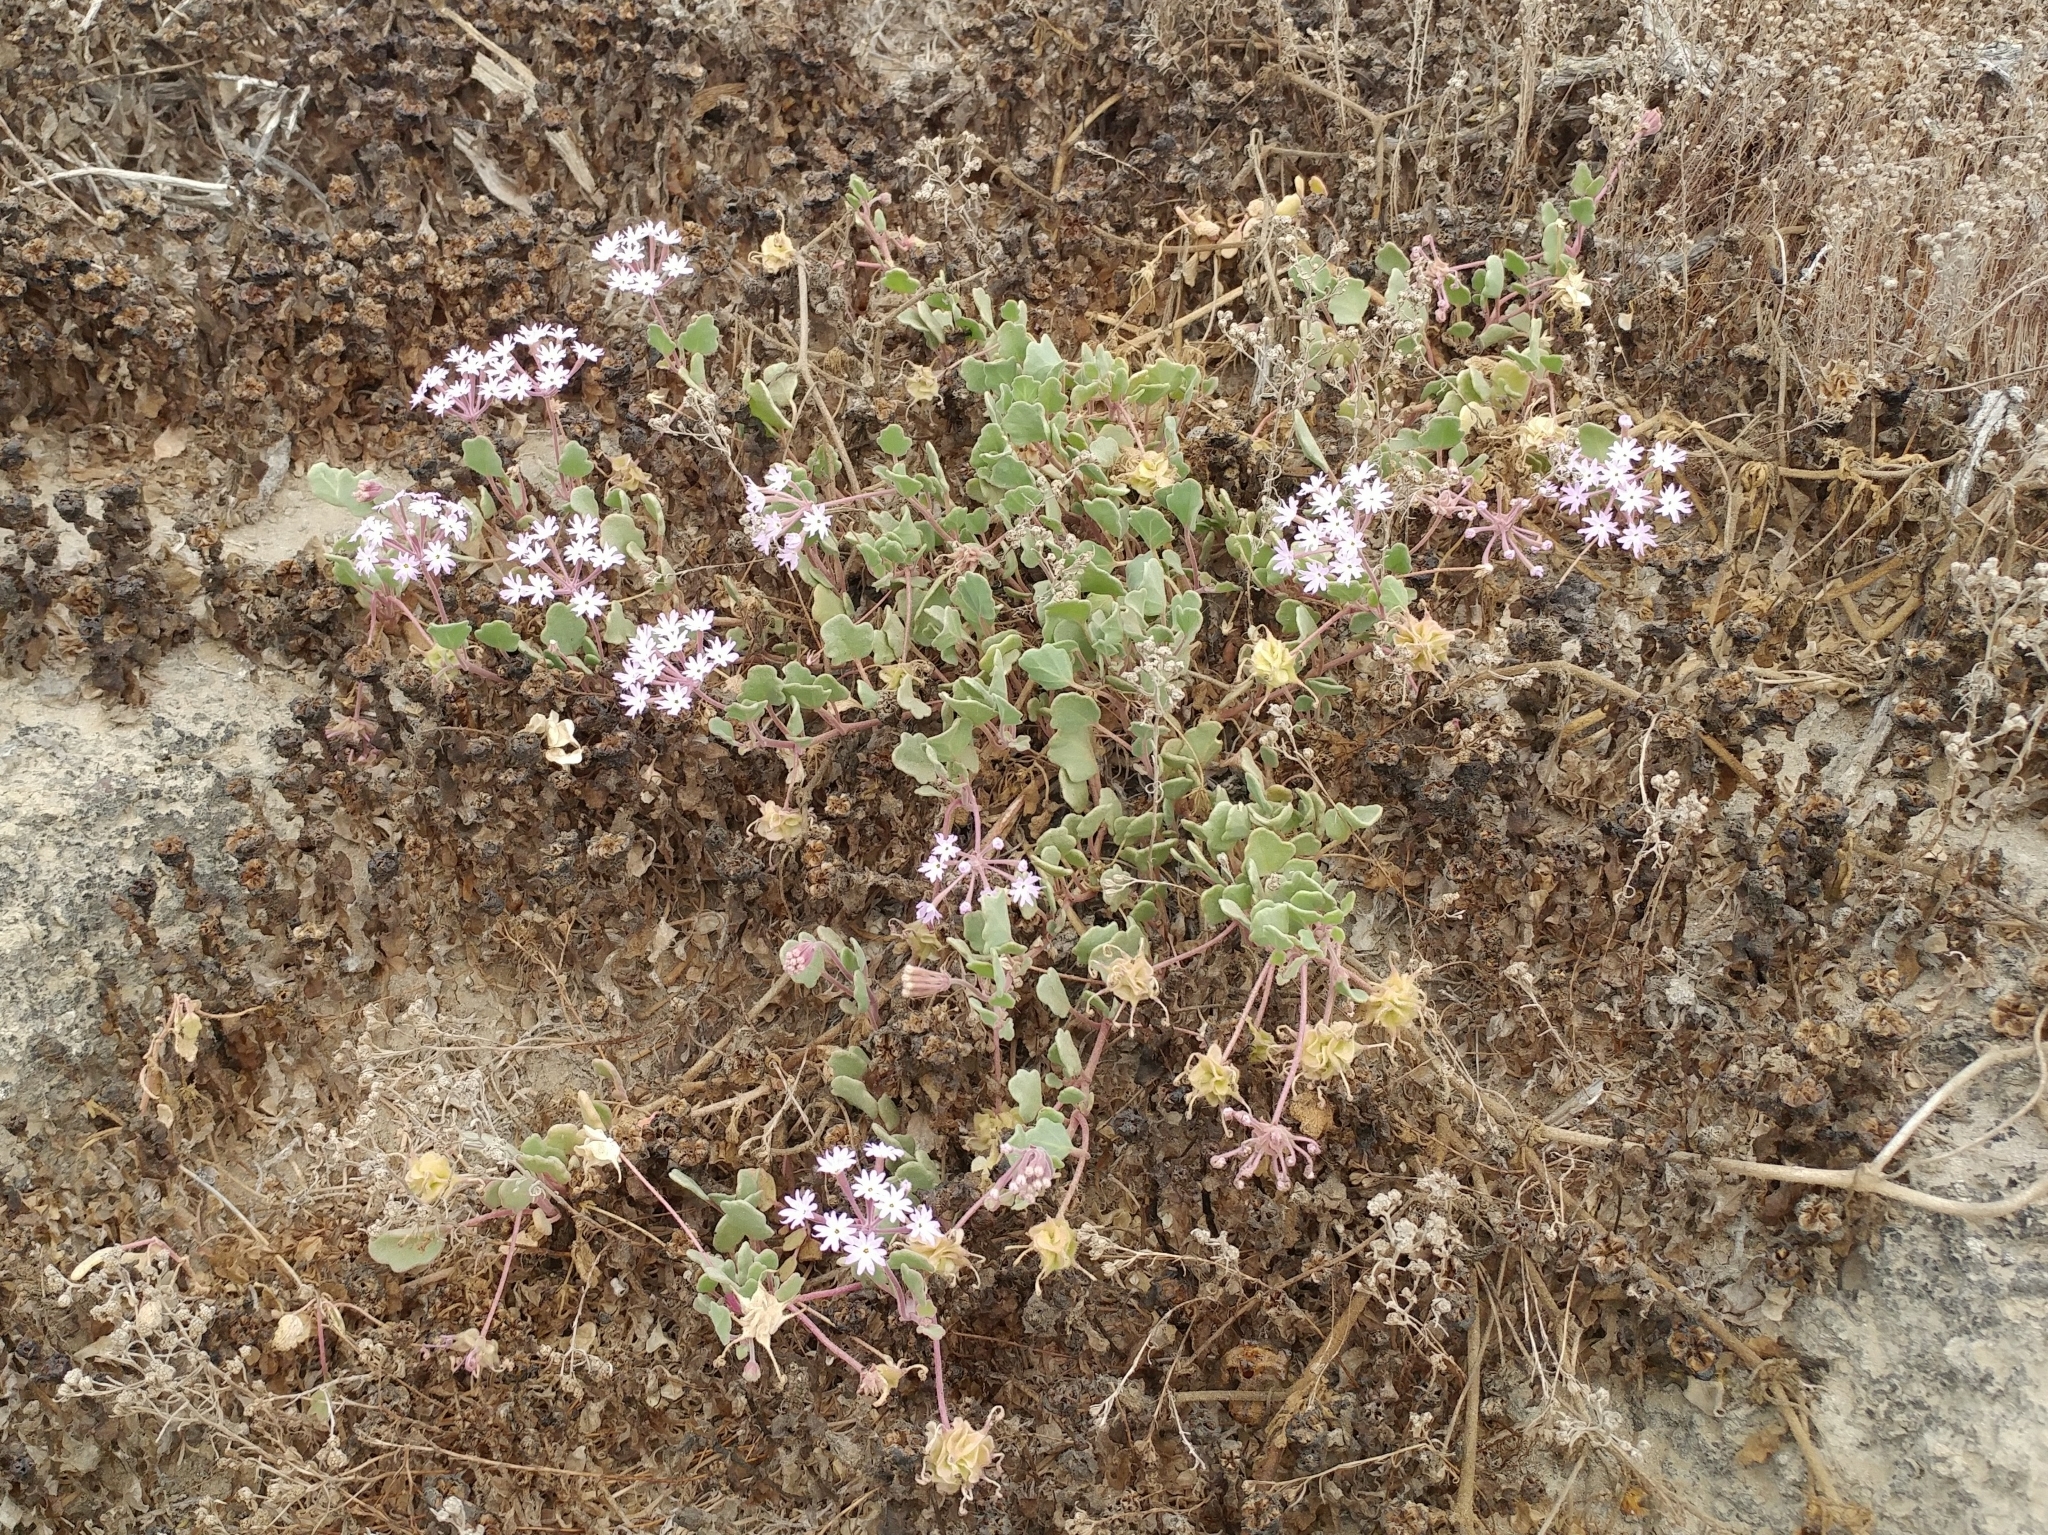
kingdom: Plantae
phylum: Tracheophyta
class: Magnoliopsida
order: Caryophyllales
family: Nyctaginaceae
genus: Abronia
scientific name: Abronia umbellata
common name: Sand-verbena
